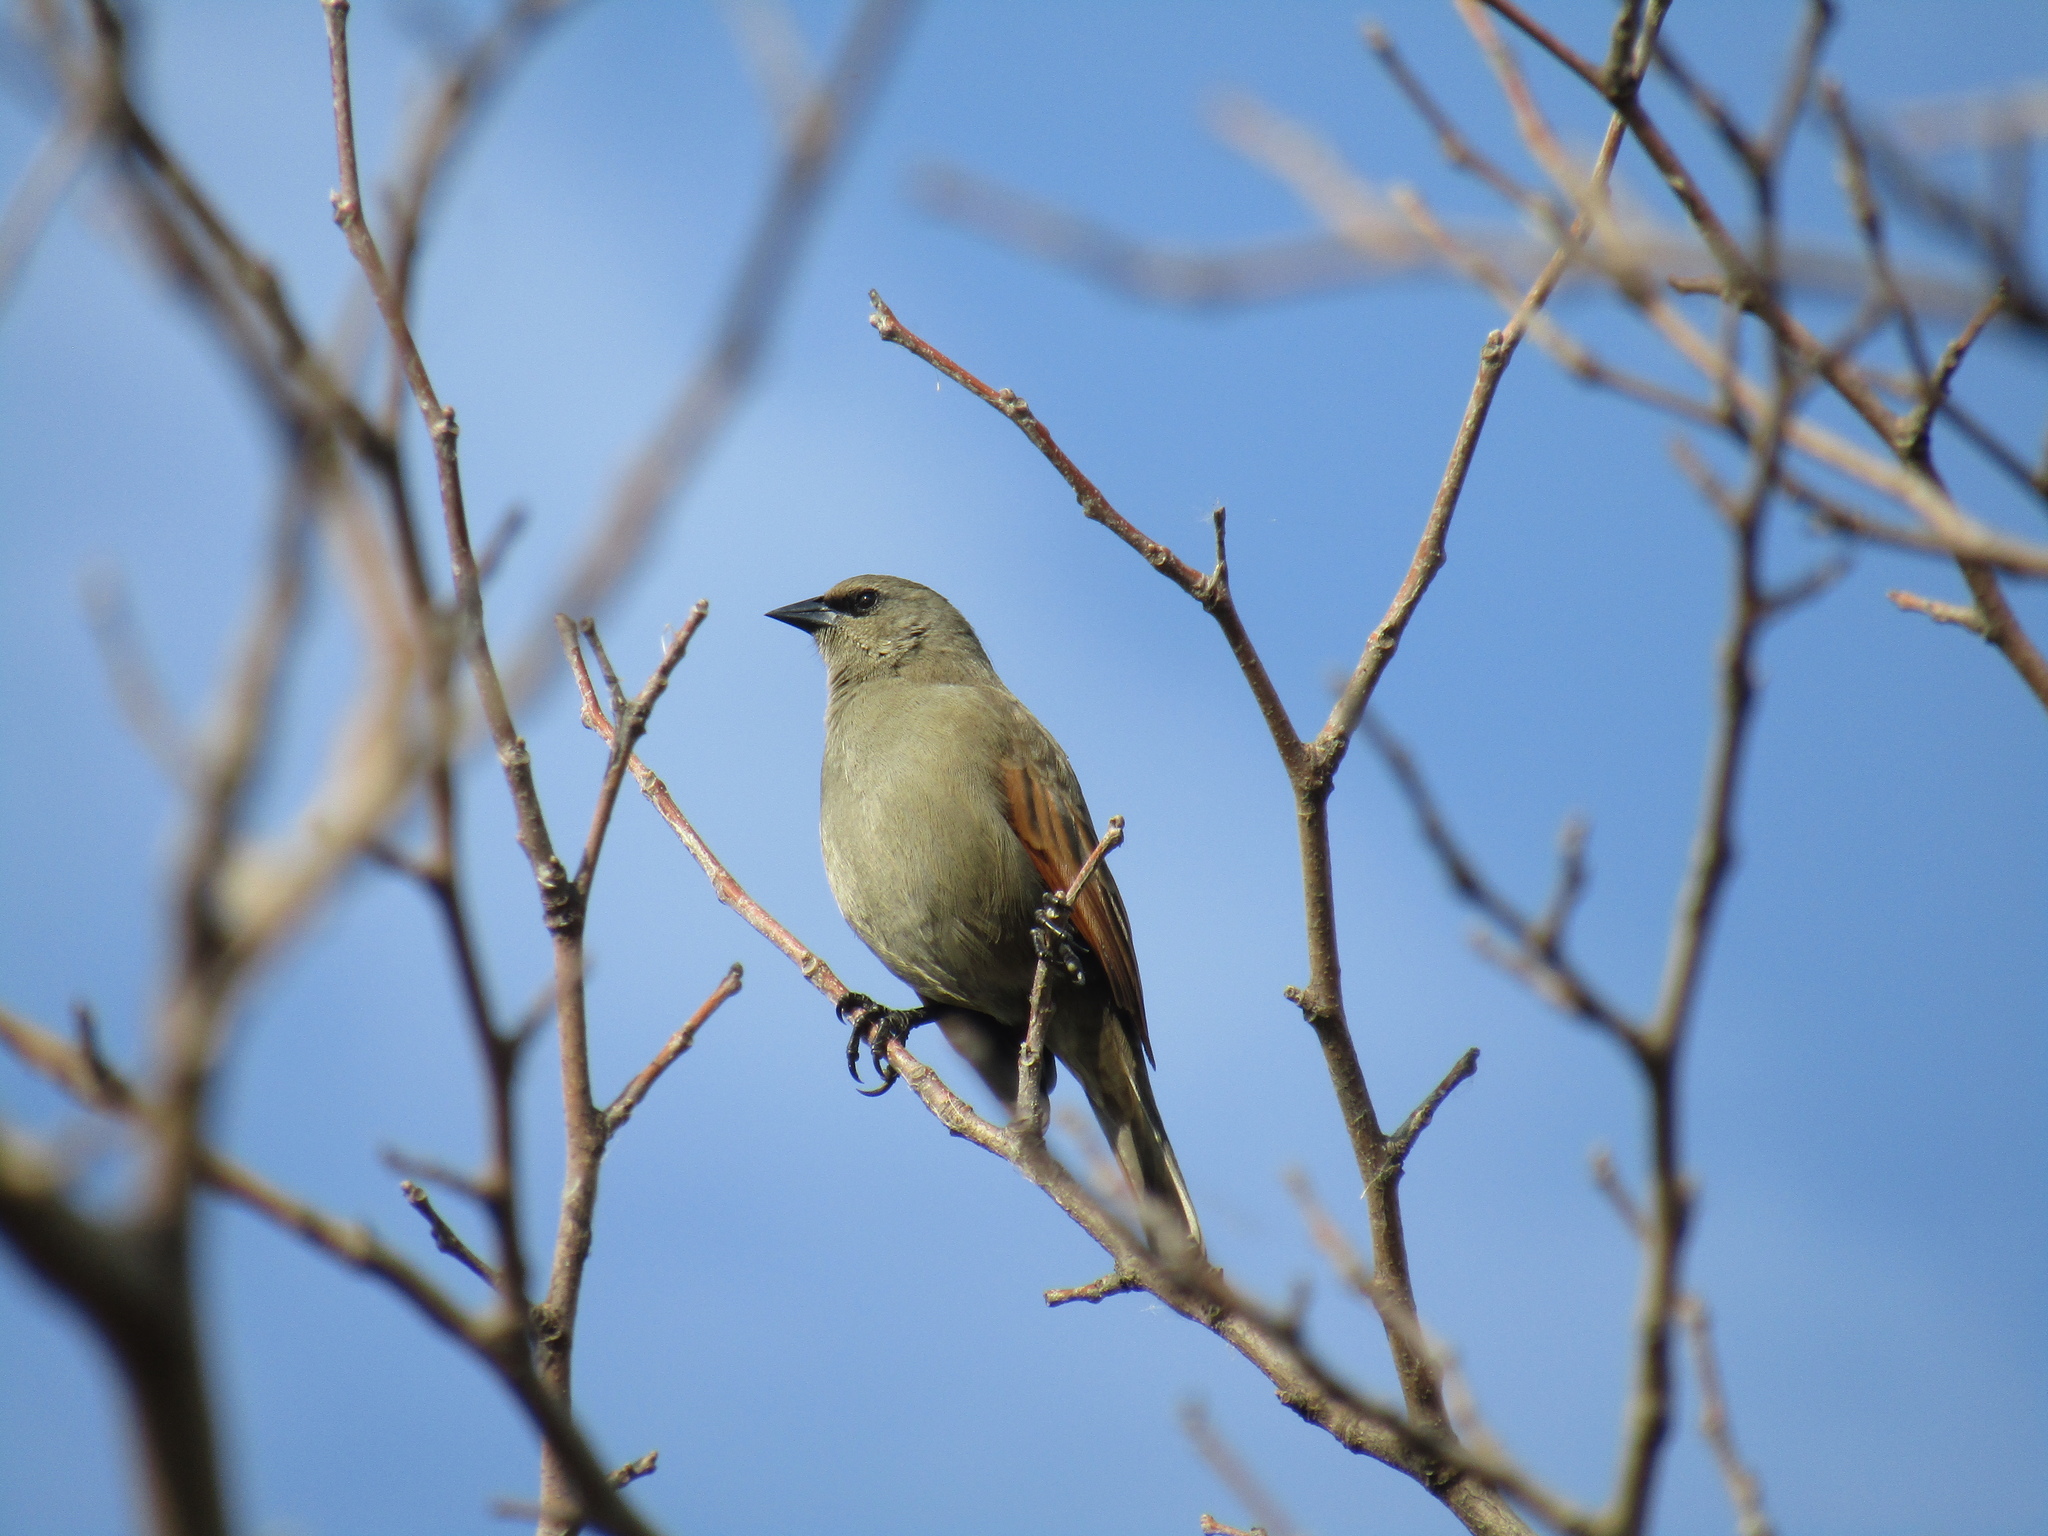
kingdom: Animalia
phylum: Chordata
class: Aves
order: Passeriformes
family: Icteridae
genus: Agelaioides
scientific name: Agelaioides badius
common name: Baywing
